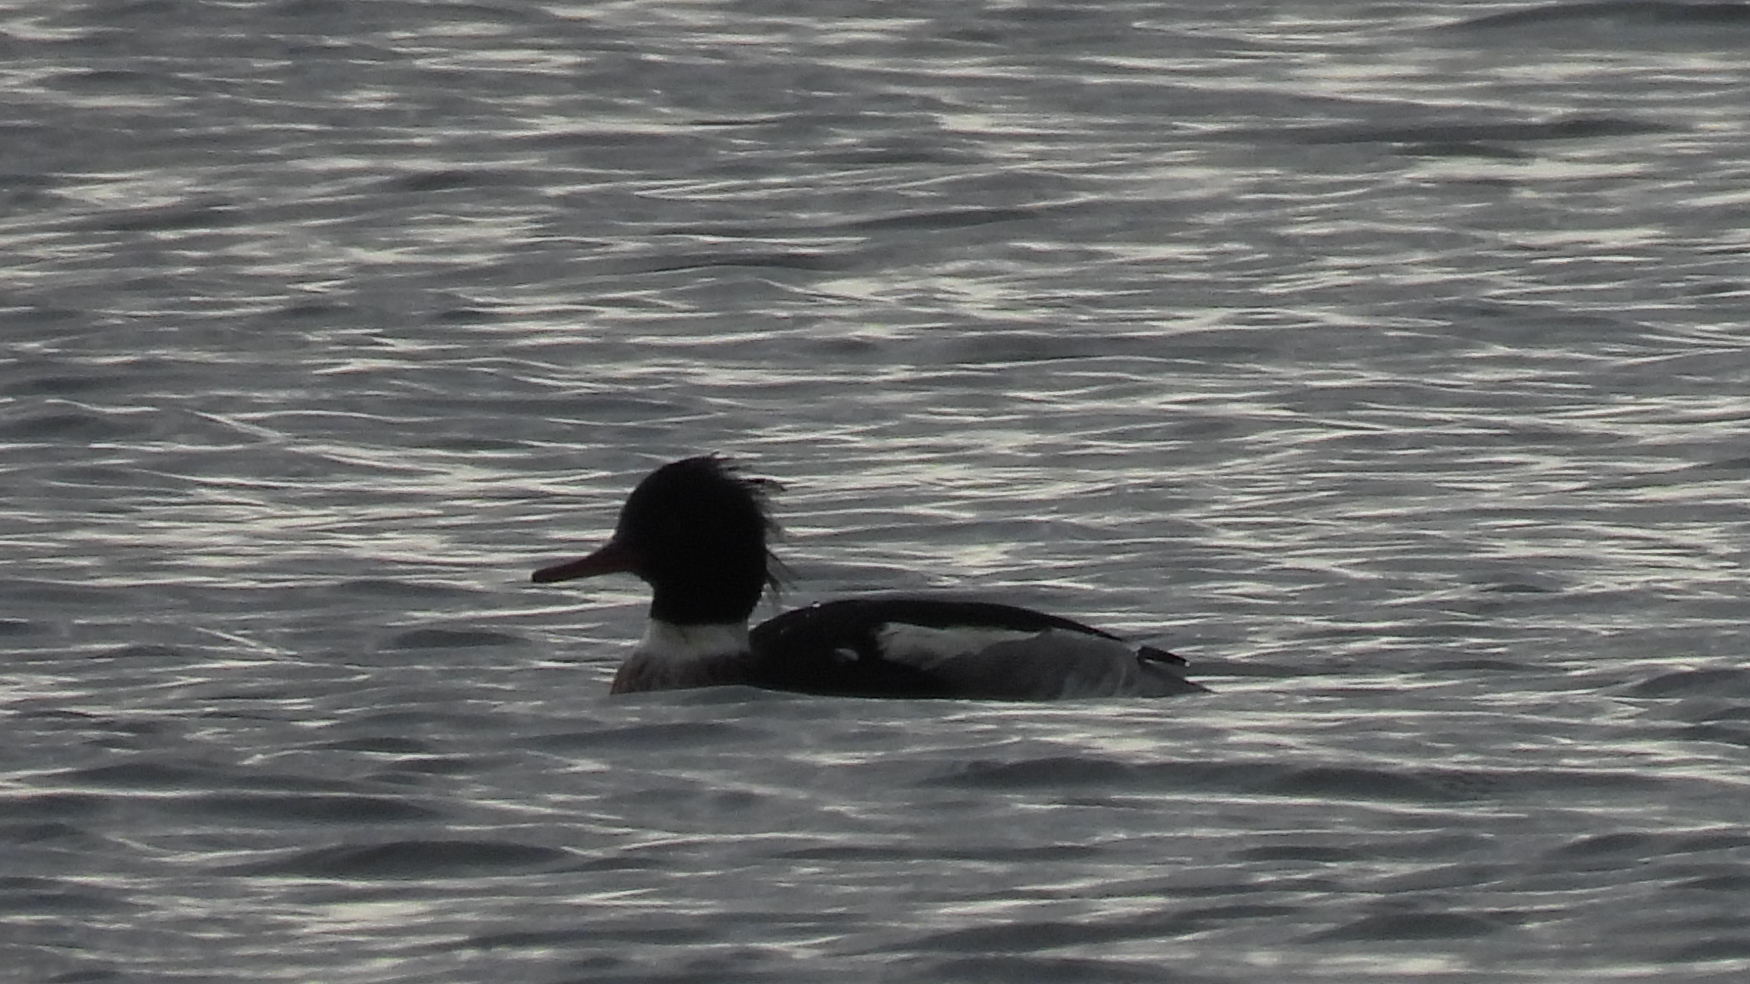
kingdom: Animalia
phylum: Chordata
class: Aves
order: Anseriformes
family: Anatidae
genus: Mergus
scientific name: Mergus serrator
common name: Red-breasted merganser
